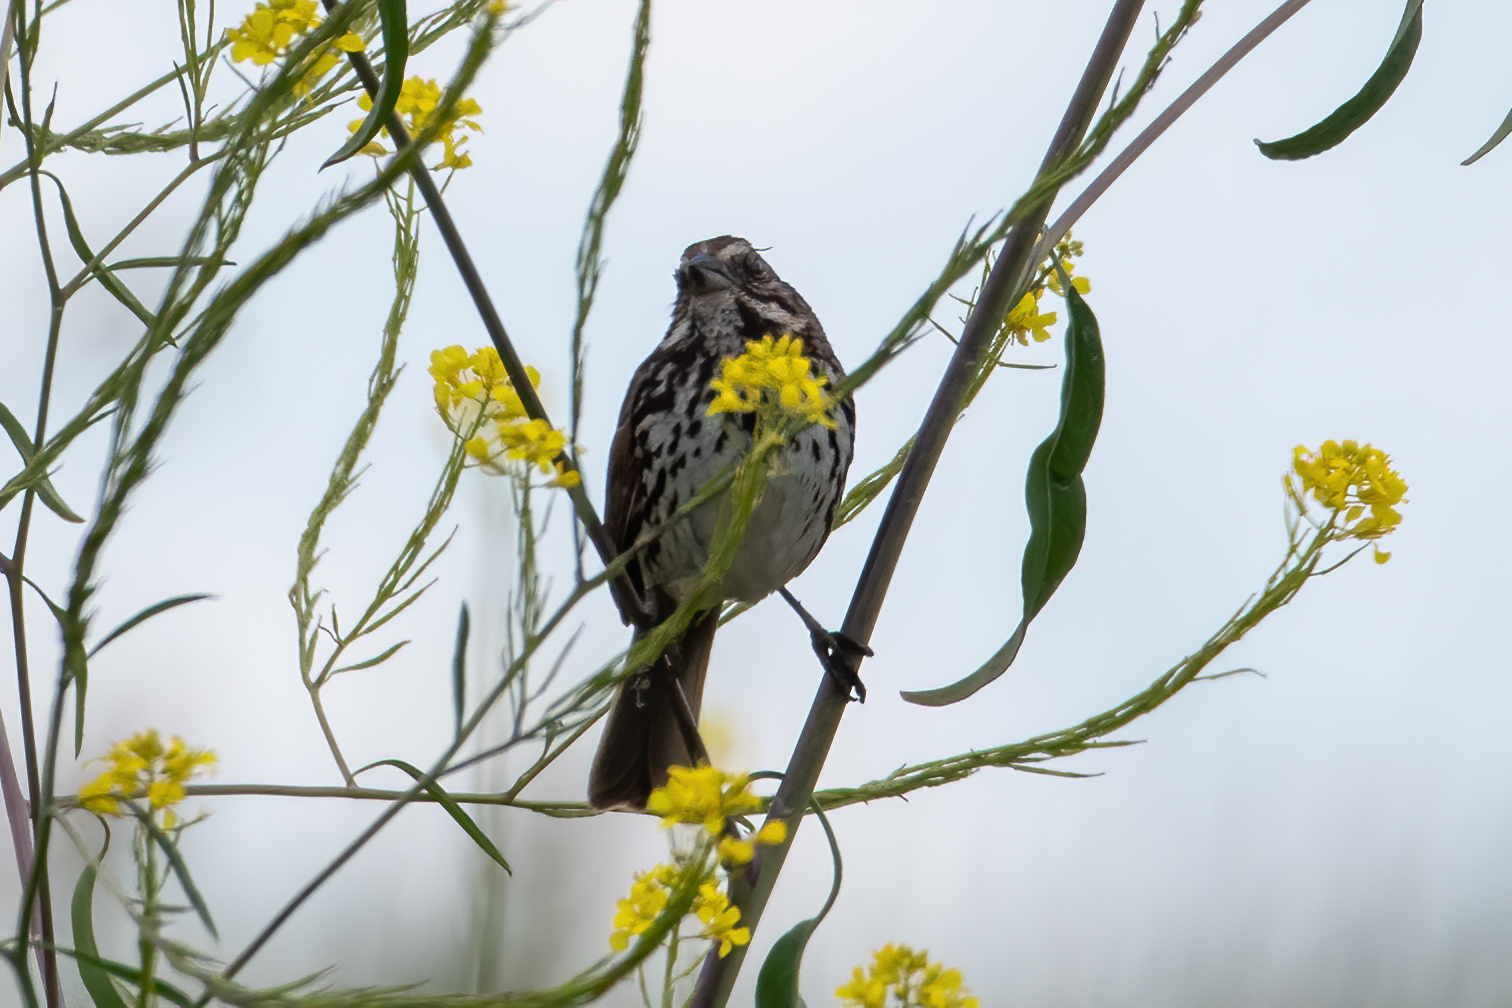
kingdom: Animalia
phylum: Chordata
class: Aves
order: Passeriformes
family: Passerellidae
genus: Melospiza
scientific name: Melospiza melodia
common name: Song sparrow
